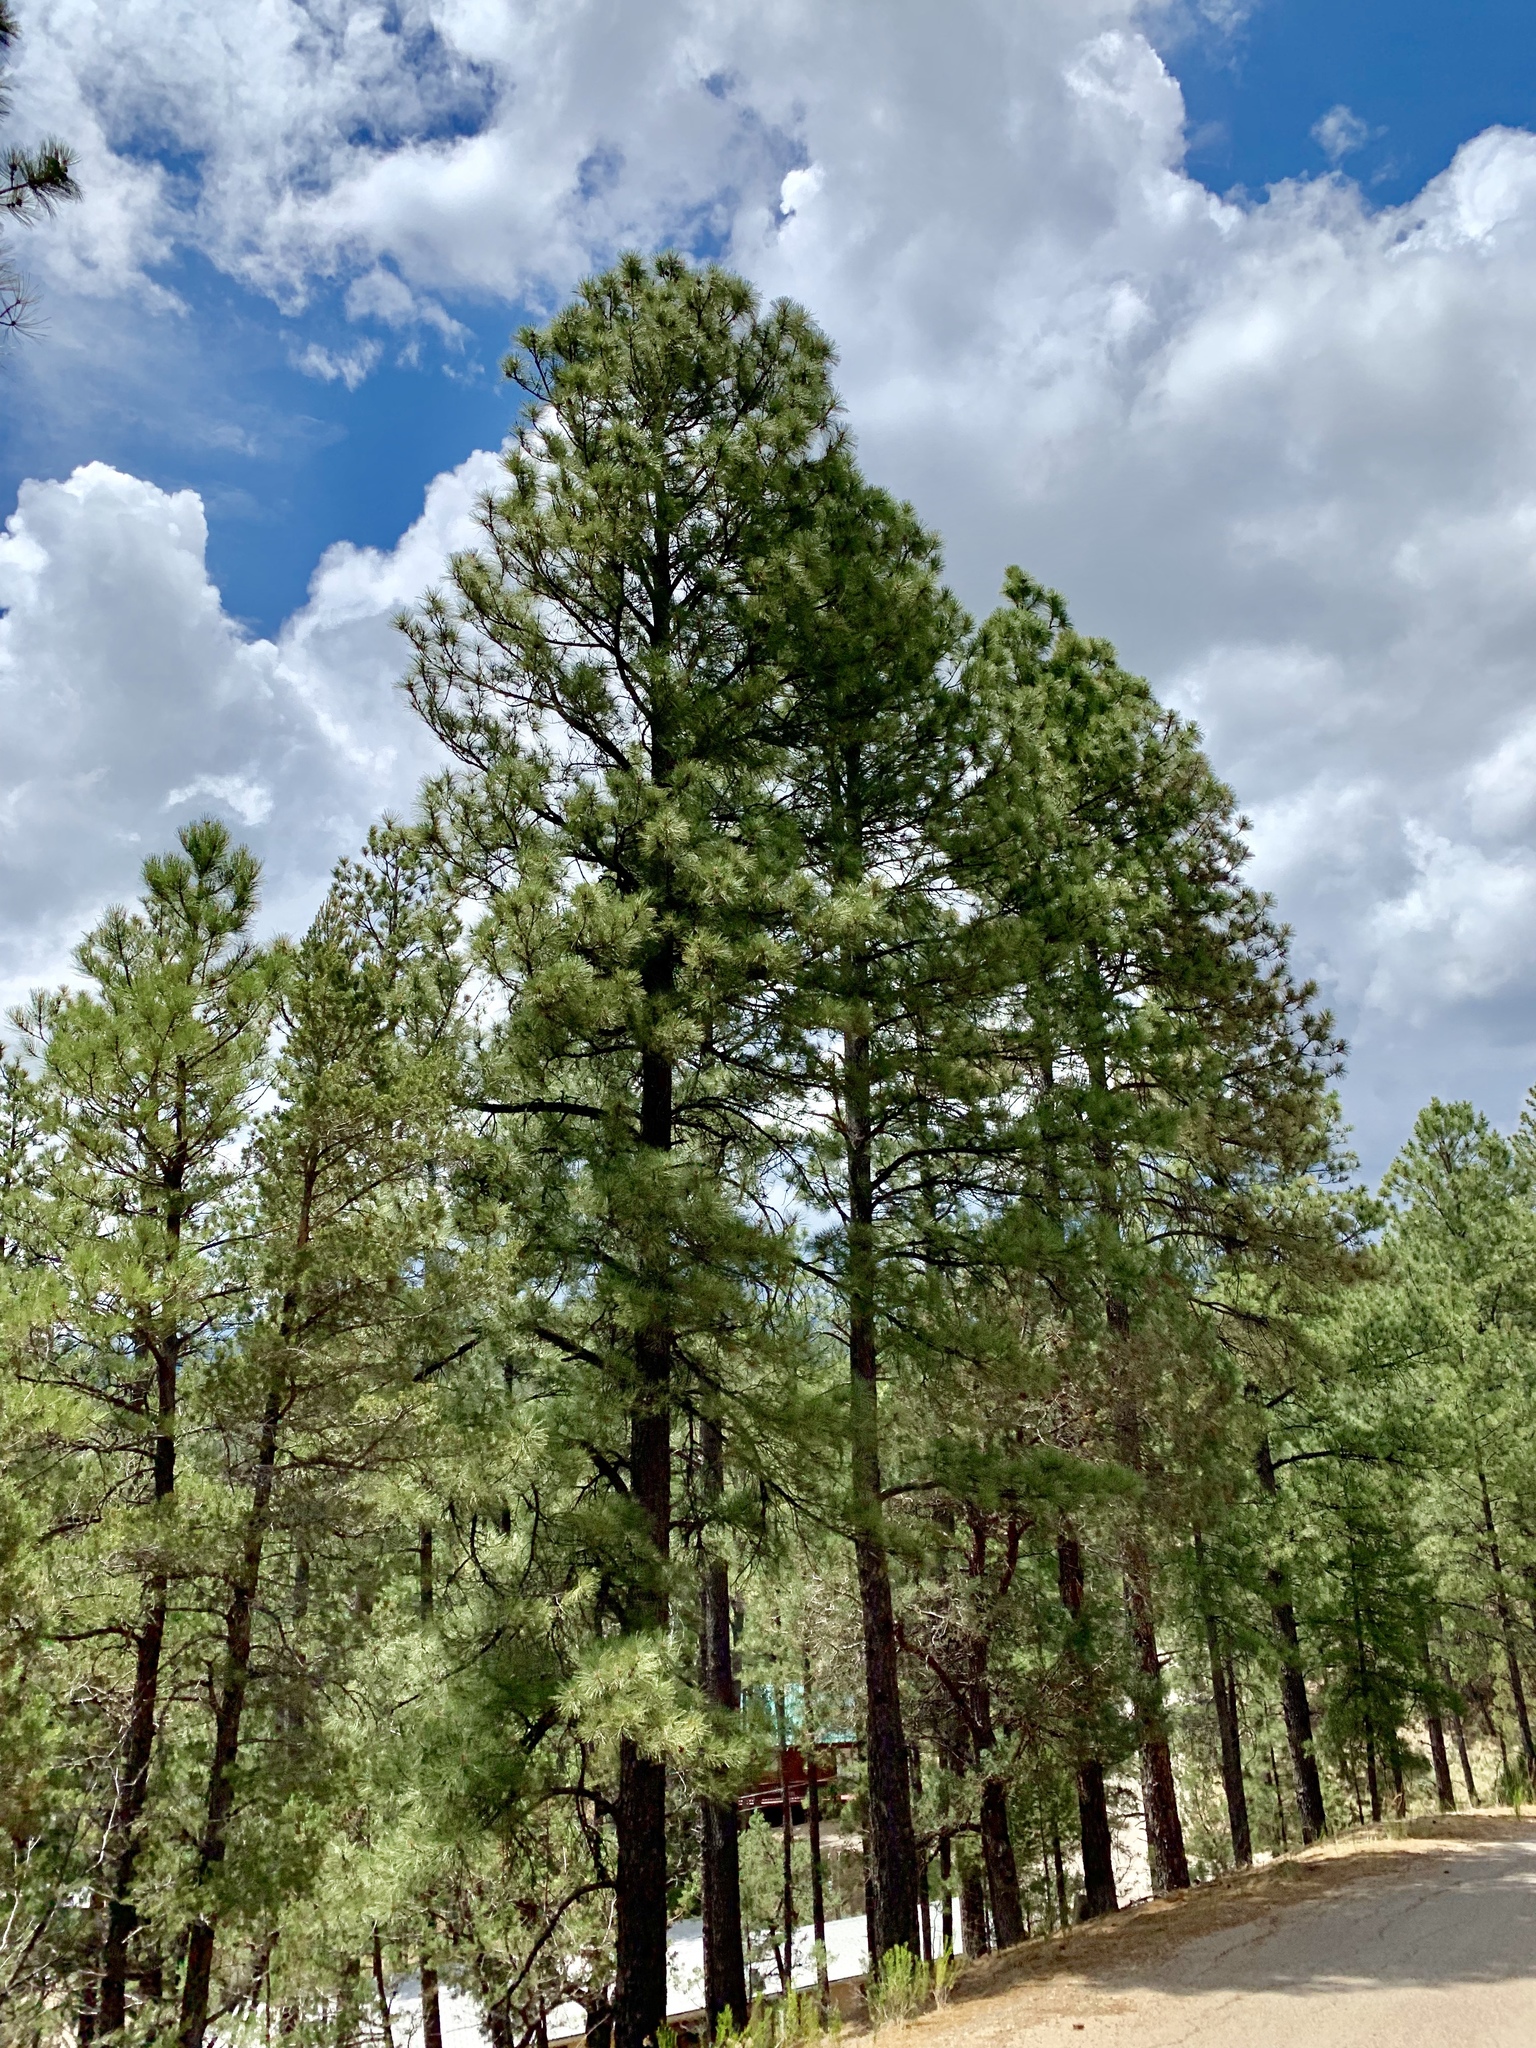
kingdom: Plantae
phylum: Tracheophyta
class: Pinopsida
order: Pinales
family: Pinaceae
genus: Pinus
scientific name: Pinus ponderosa
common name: Western yellow-pine
